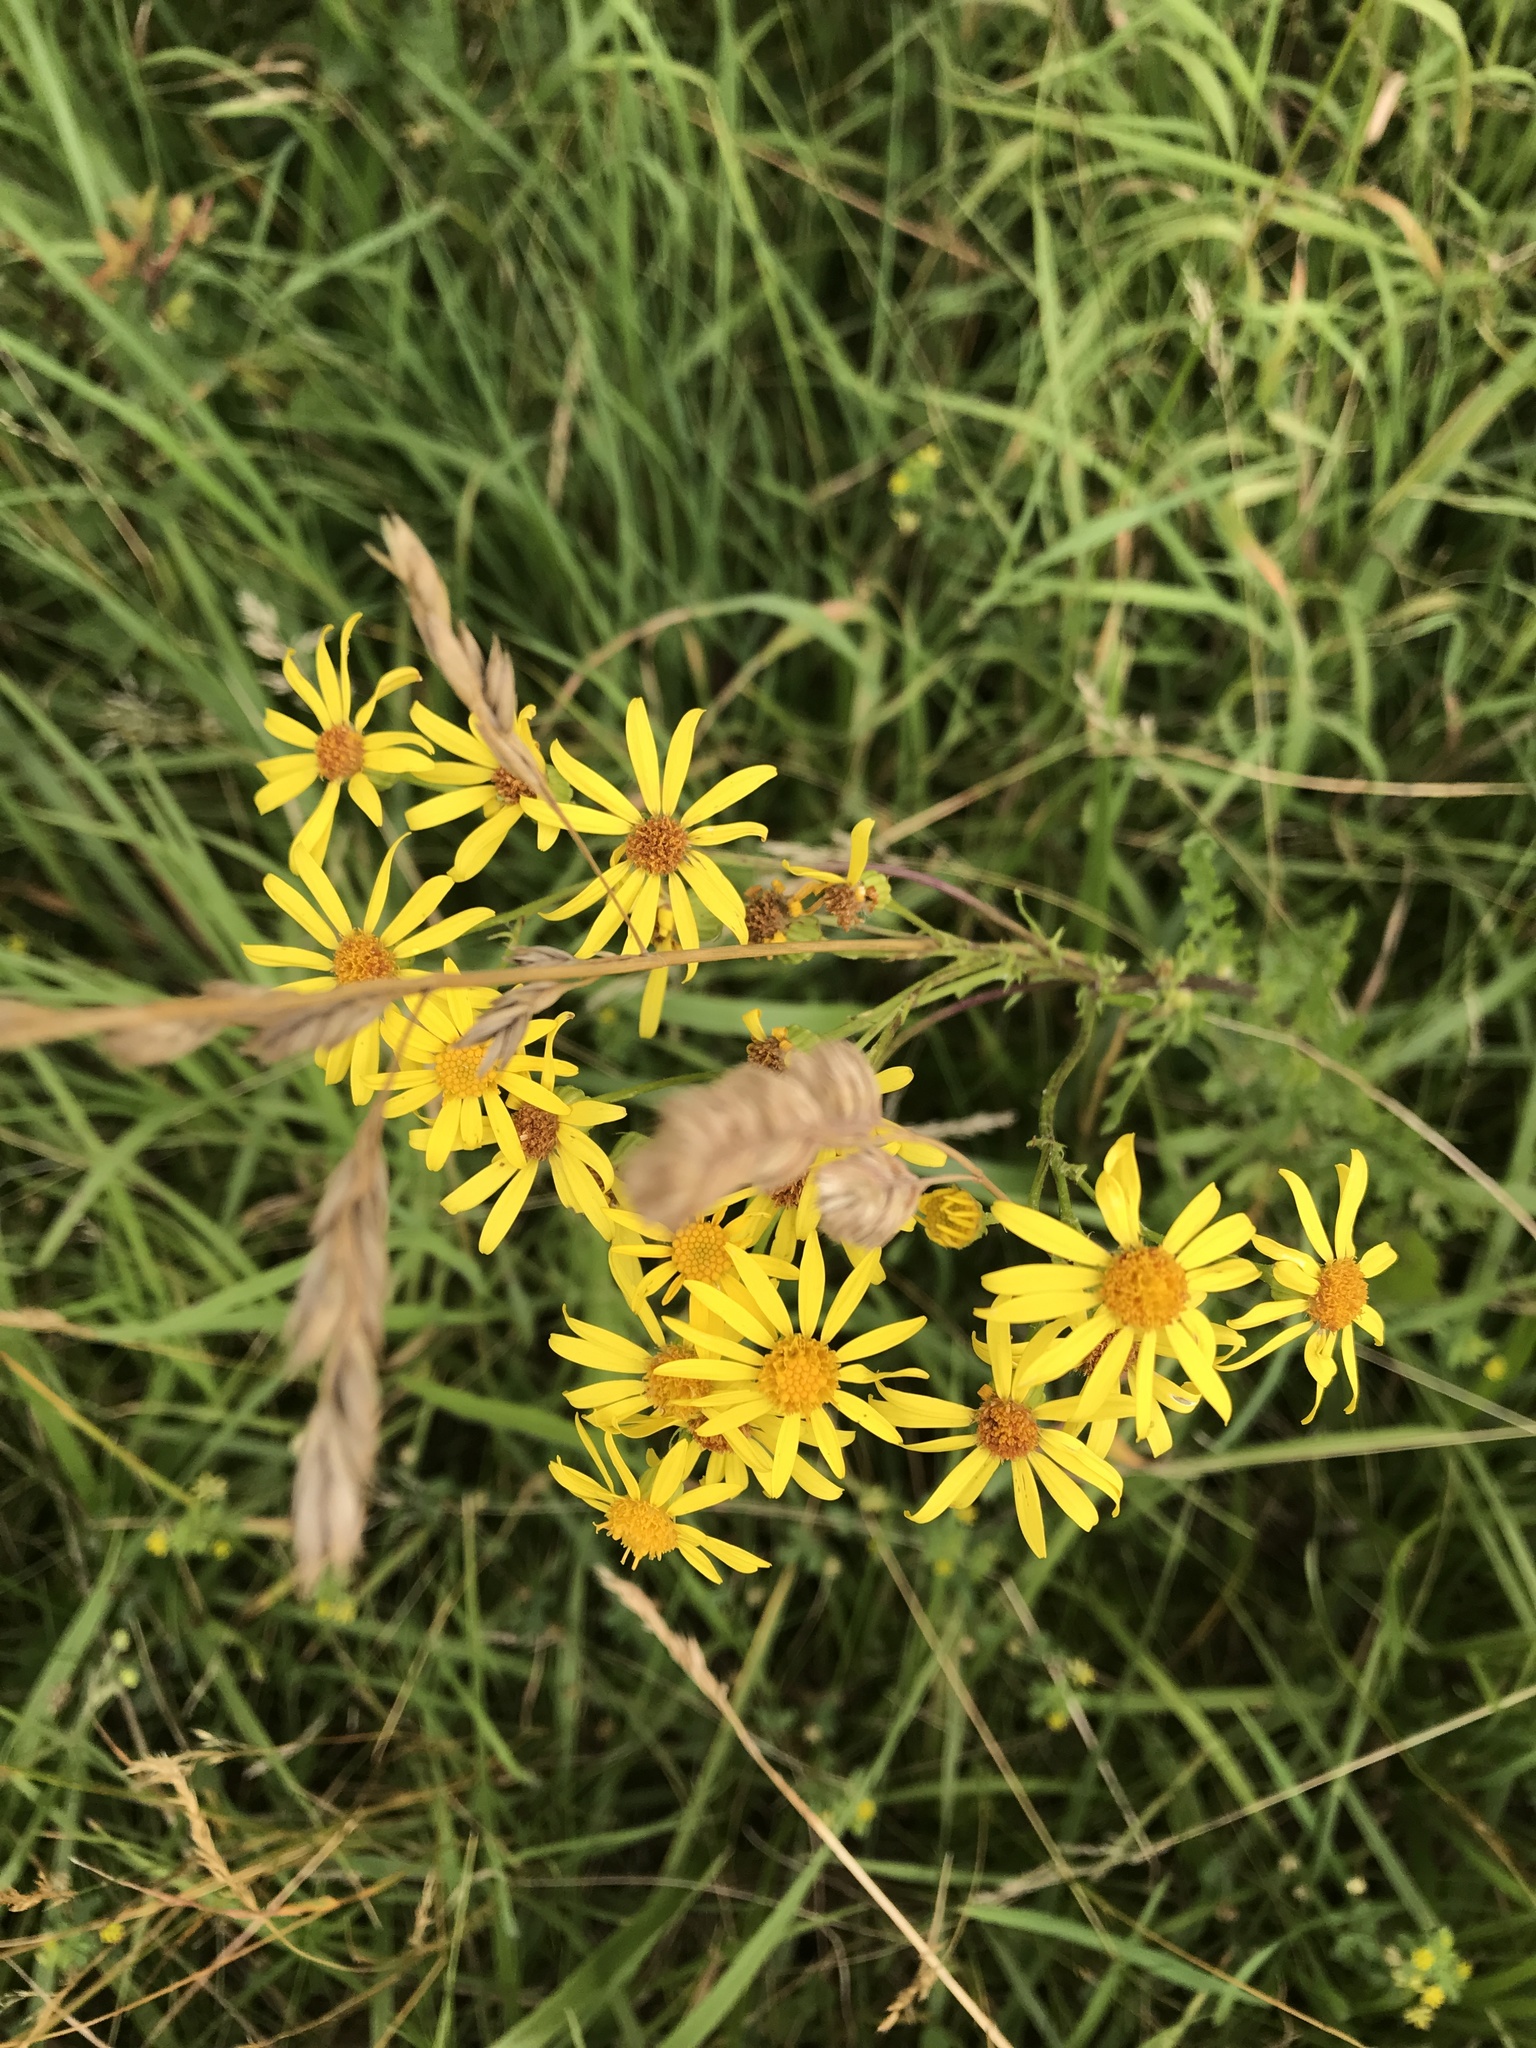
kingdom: Plantae
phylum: Tracheophyta
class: Magnoliopsida
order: Asterales
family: Asteraceae
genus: Jacobaea
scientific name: Jacobaea vulgaris
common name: Stinking willie
